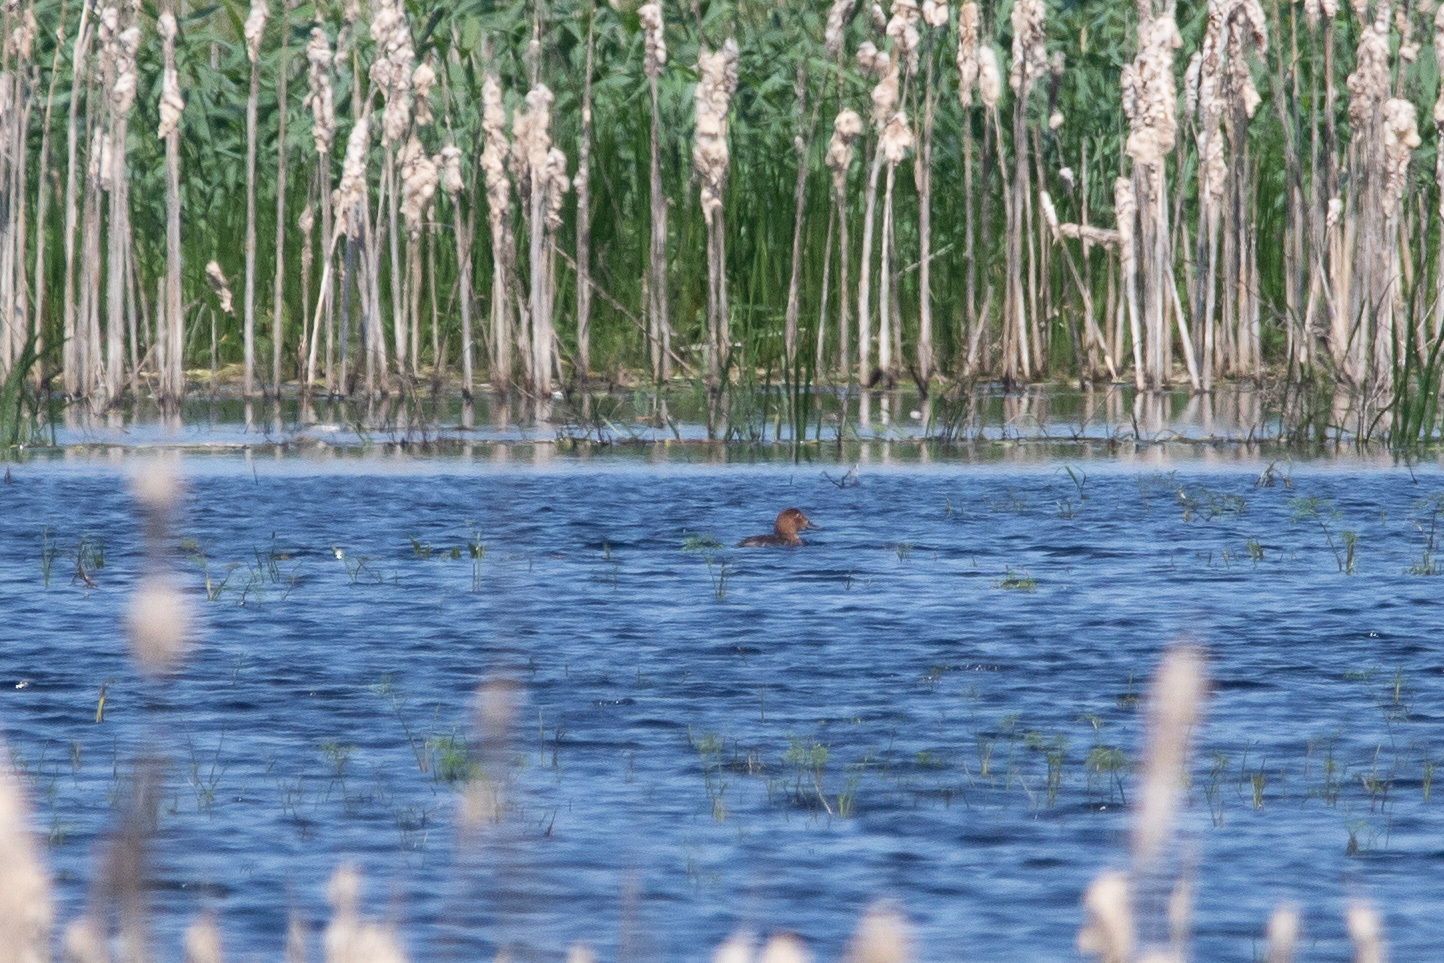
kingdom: Animalia
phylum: Chordata
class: Aves
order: Anseriformes
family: Anatidae
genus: Aythya
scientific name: Aythya ferina
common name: Common pochard
